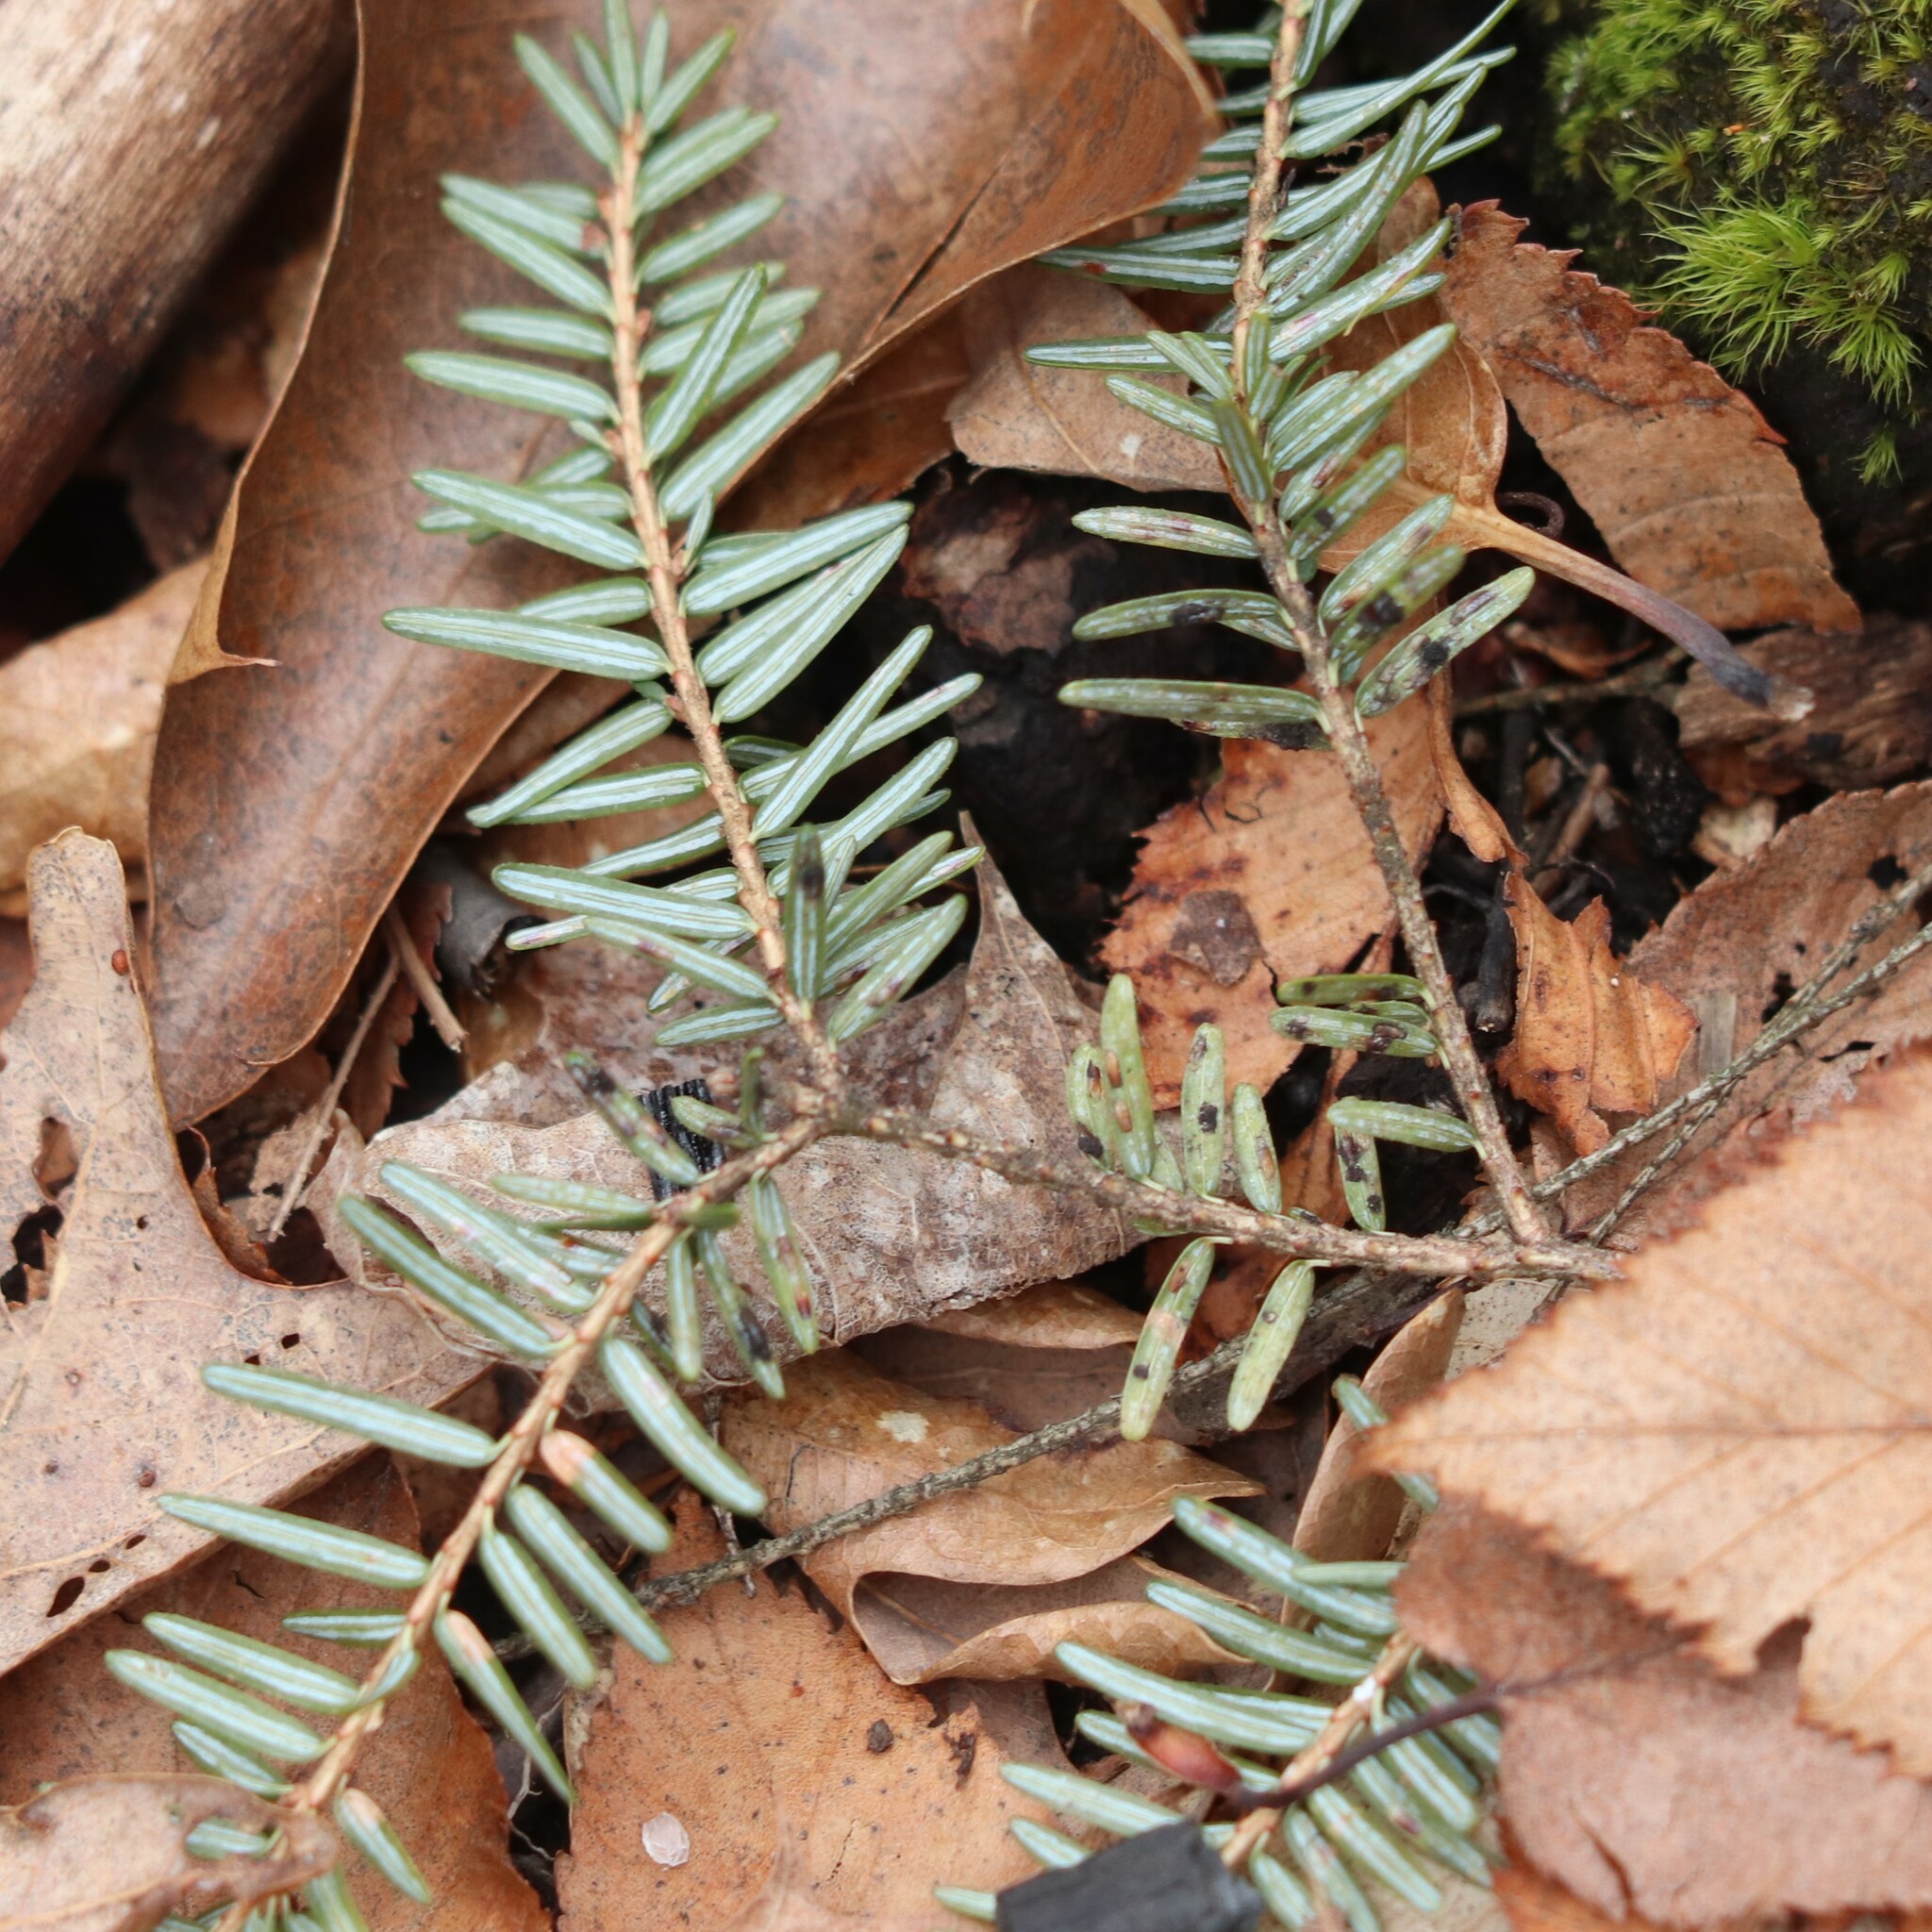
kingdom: Plantae
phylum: Tracheophyta
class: Pinopsida
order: Pinales
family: Pinaceae
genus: Tsuga
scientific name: Tsuga canadensis
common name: Eastern hemlock
